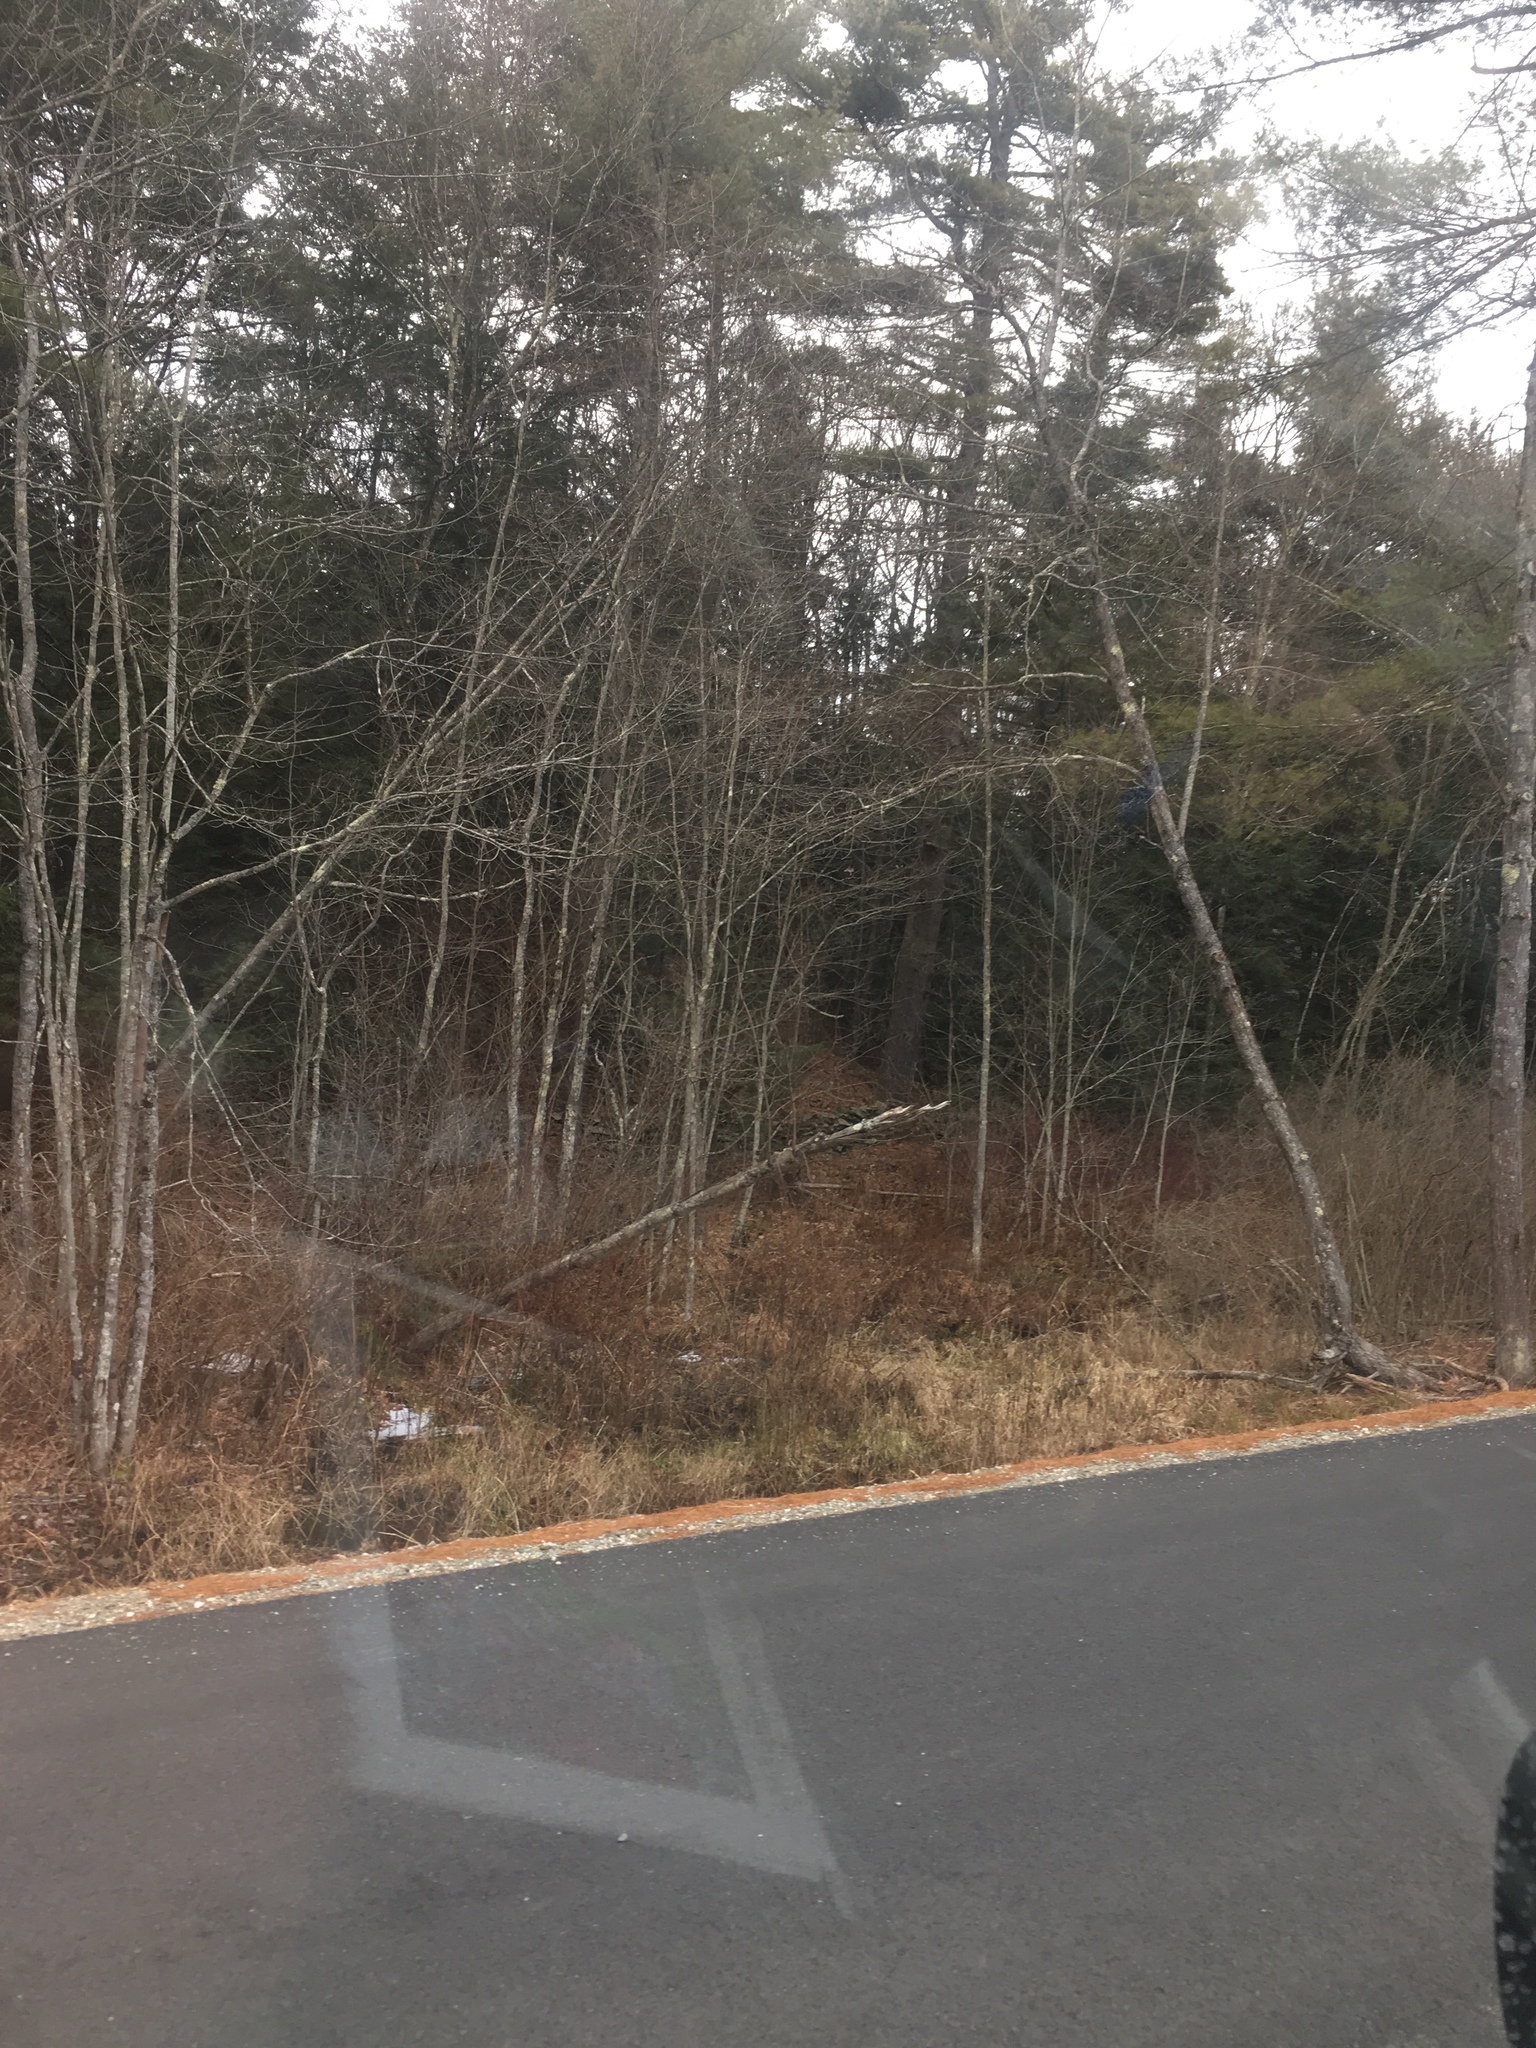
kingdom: Plantae
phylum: Tracheophyta
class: Magnoliopsida
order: Sapindales
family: Sapindaceae
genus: Acer
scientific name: Acer rubrum
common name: Red maple
